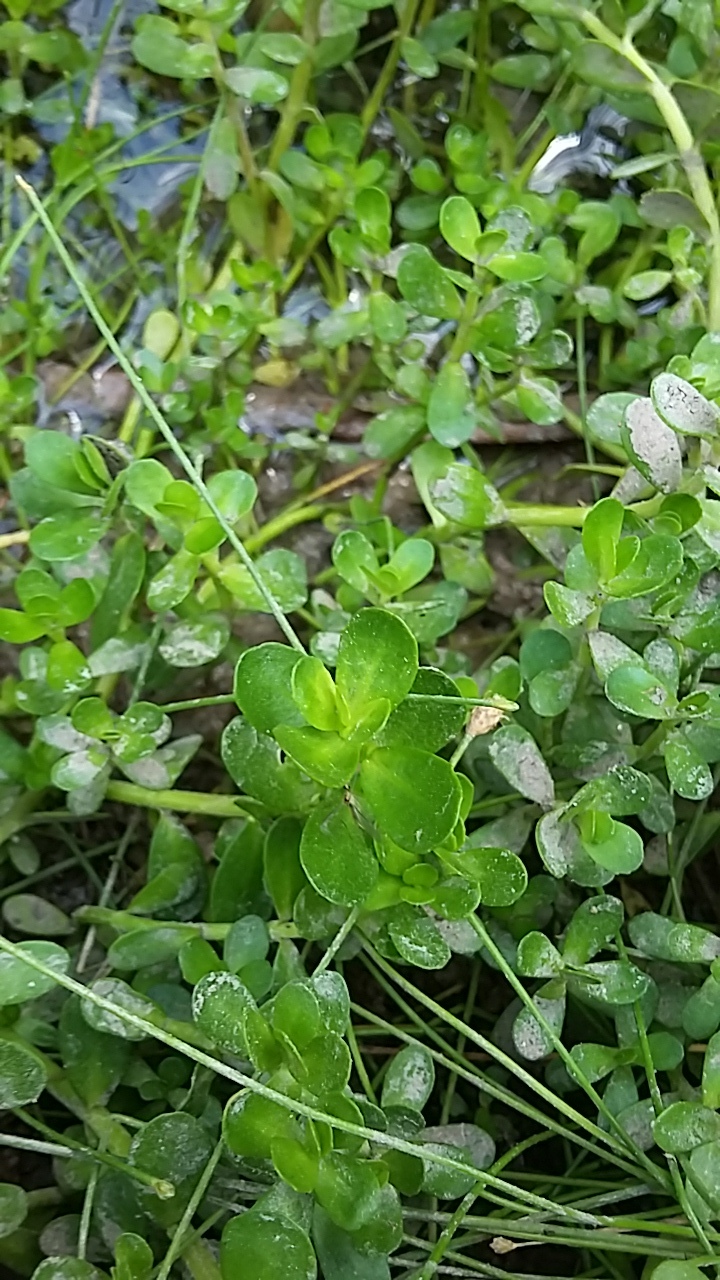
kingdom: Plantae
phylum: Tracheophyta
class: Magnoliopsida
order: Lamiales
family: Plantaginaceae
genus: Bacopa
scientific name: Bacopa monnieri
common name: Indian-pennywort
